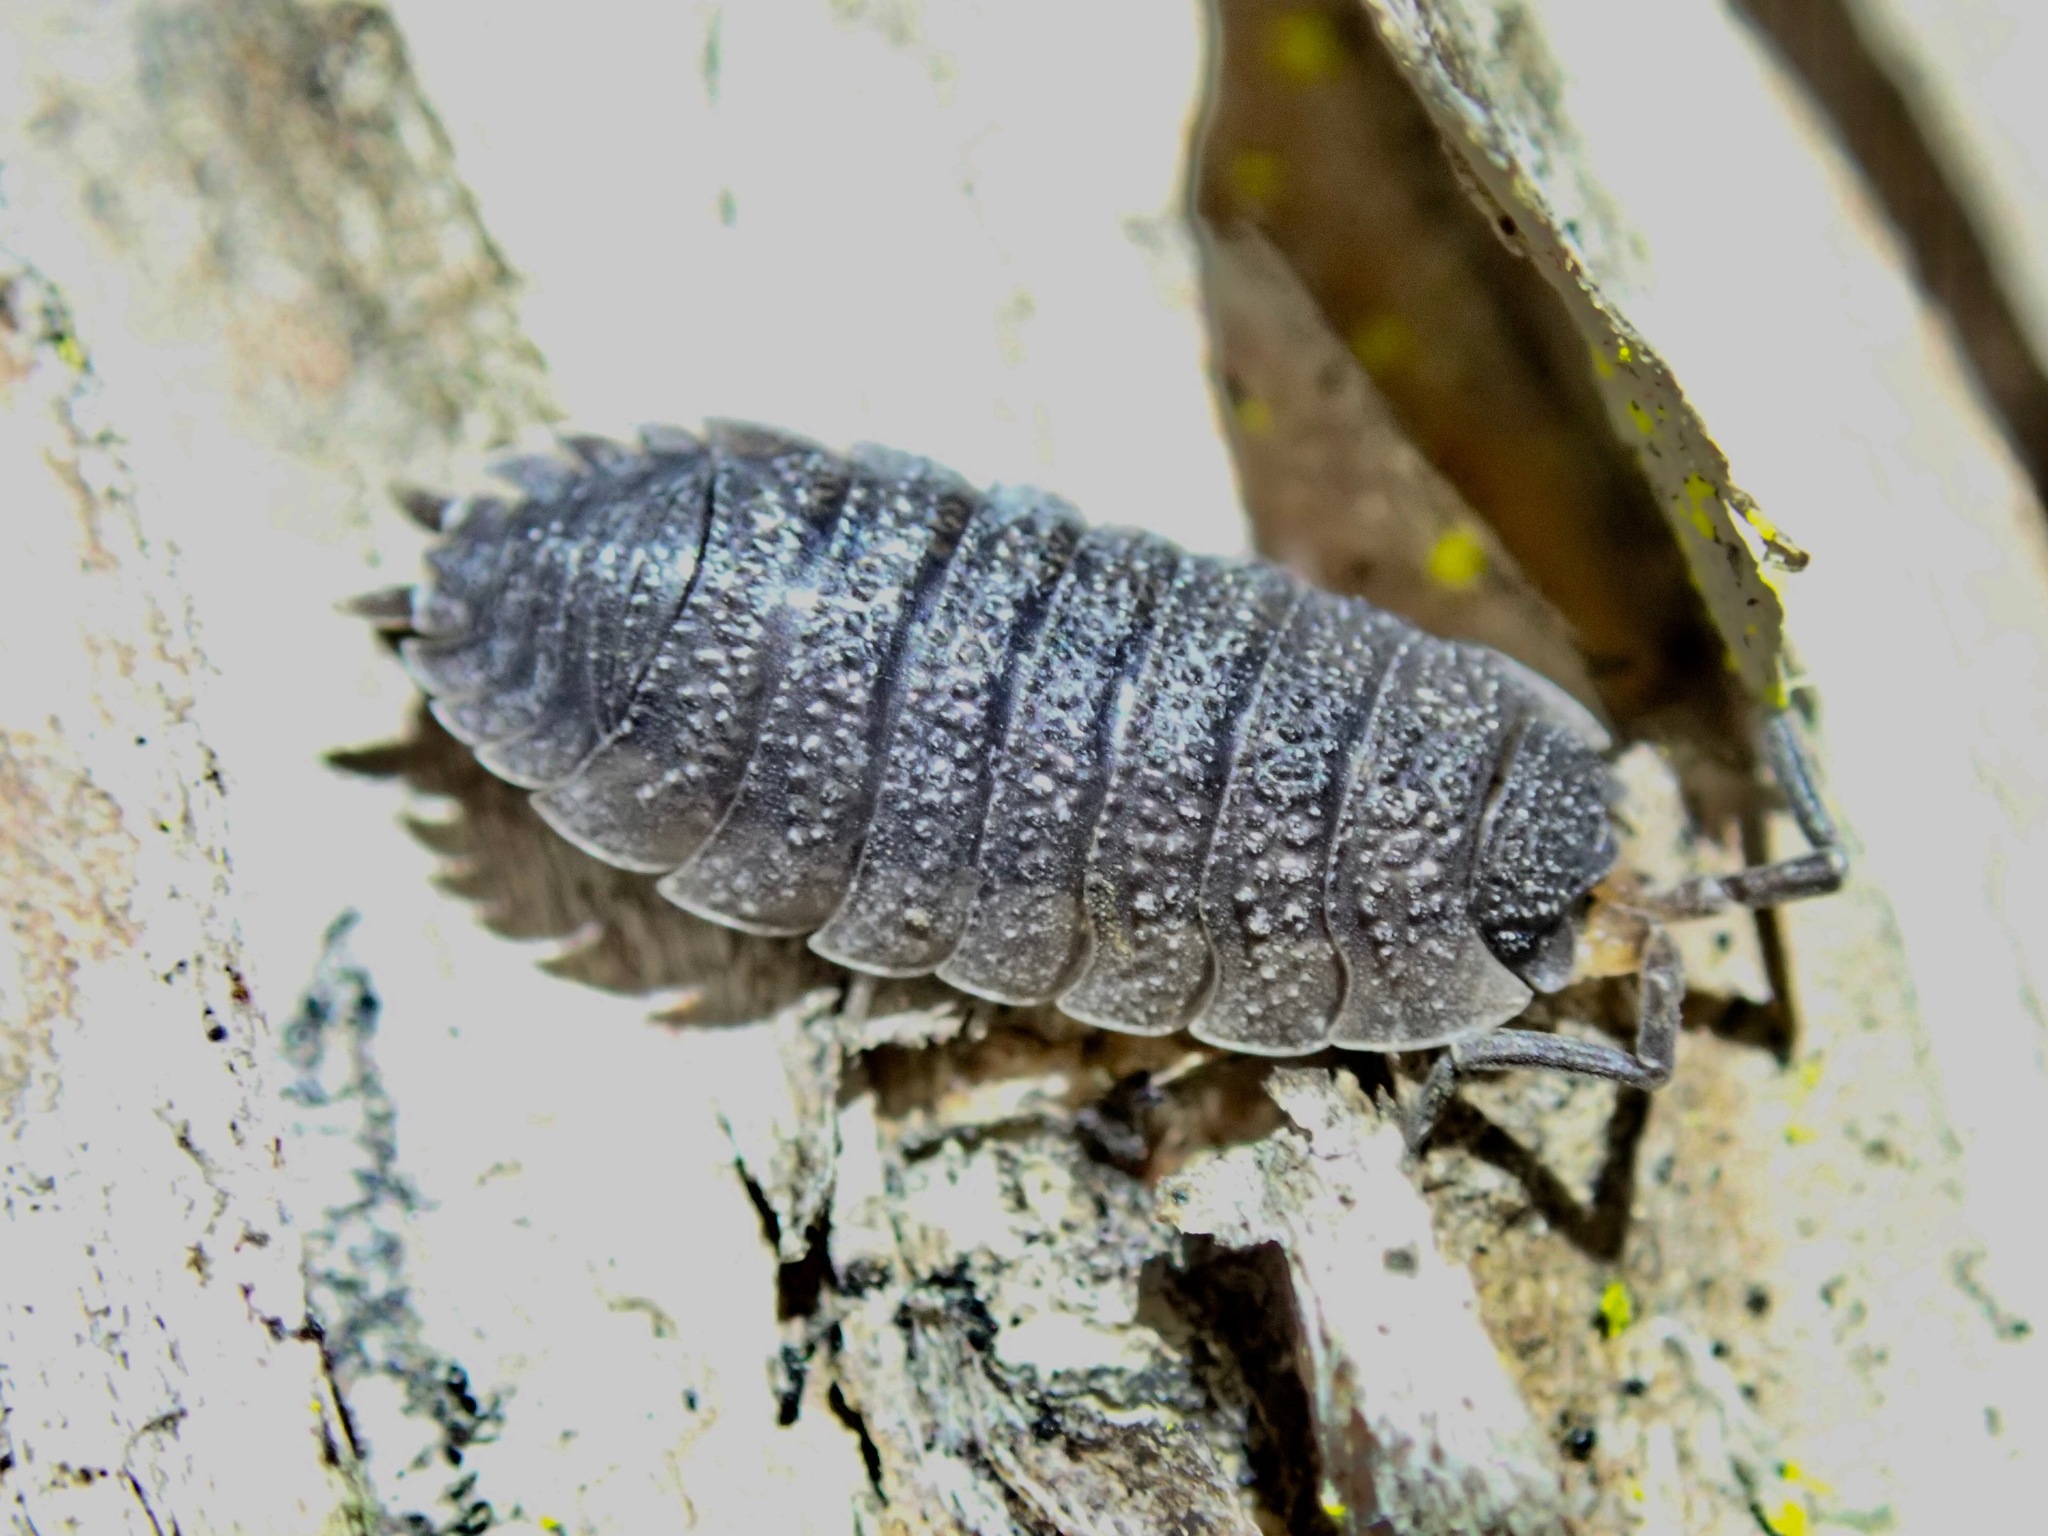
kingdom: Animalia
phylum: Arthropoda
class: Malacostraca
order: Isopoda
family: Porcellionidae
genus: Porcellio
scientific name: Porcellio scaber
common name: Common rough woodlouse
